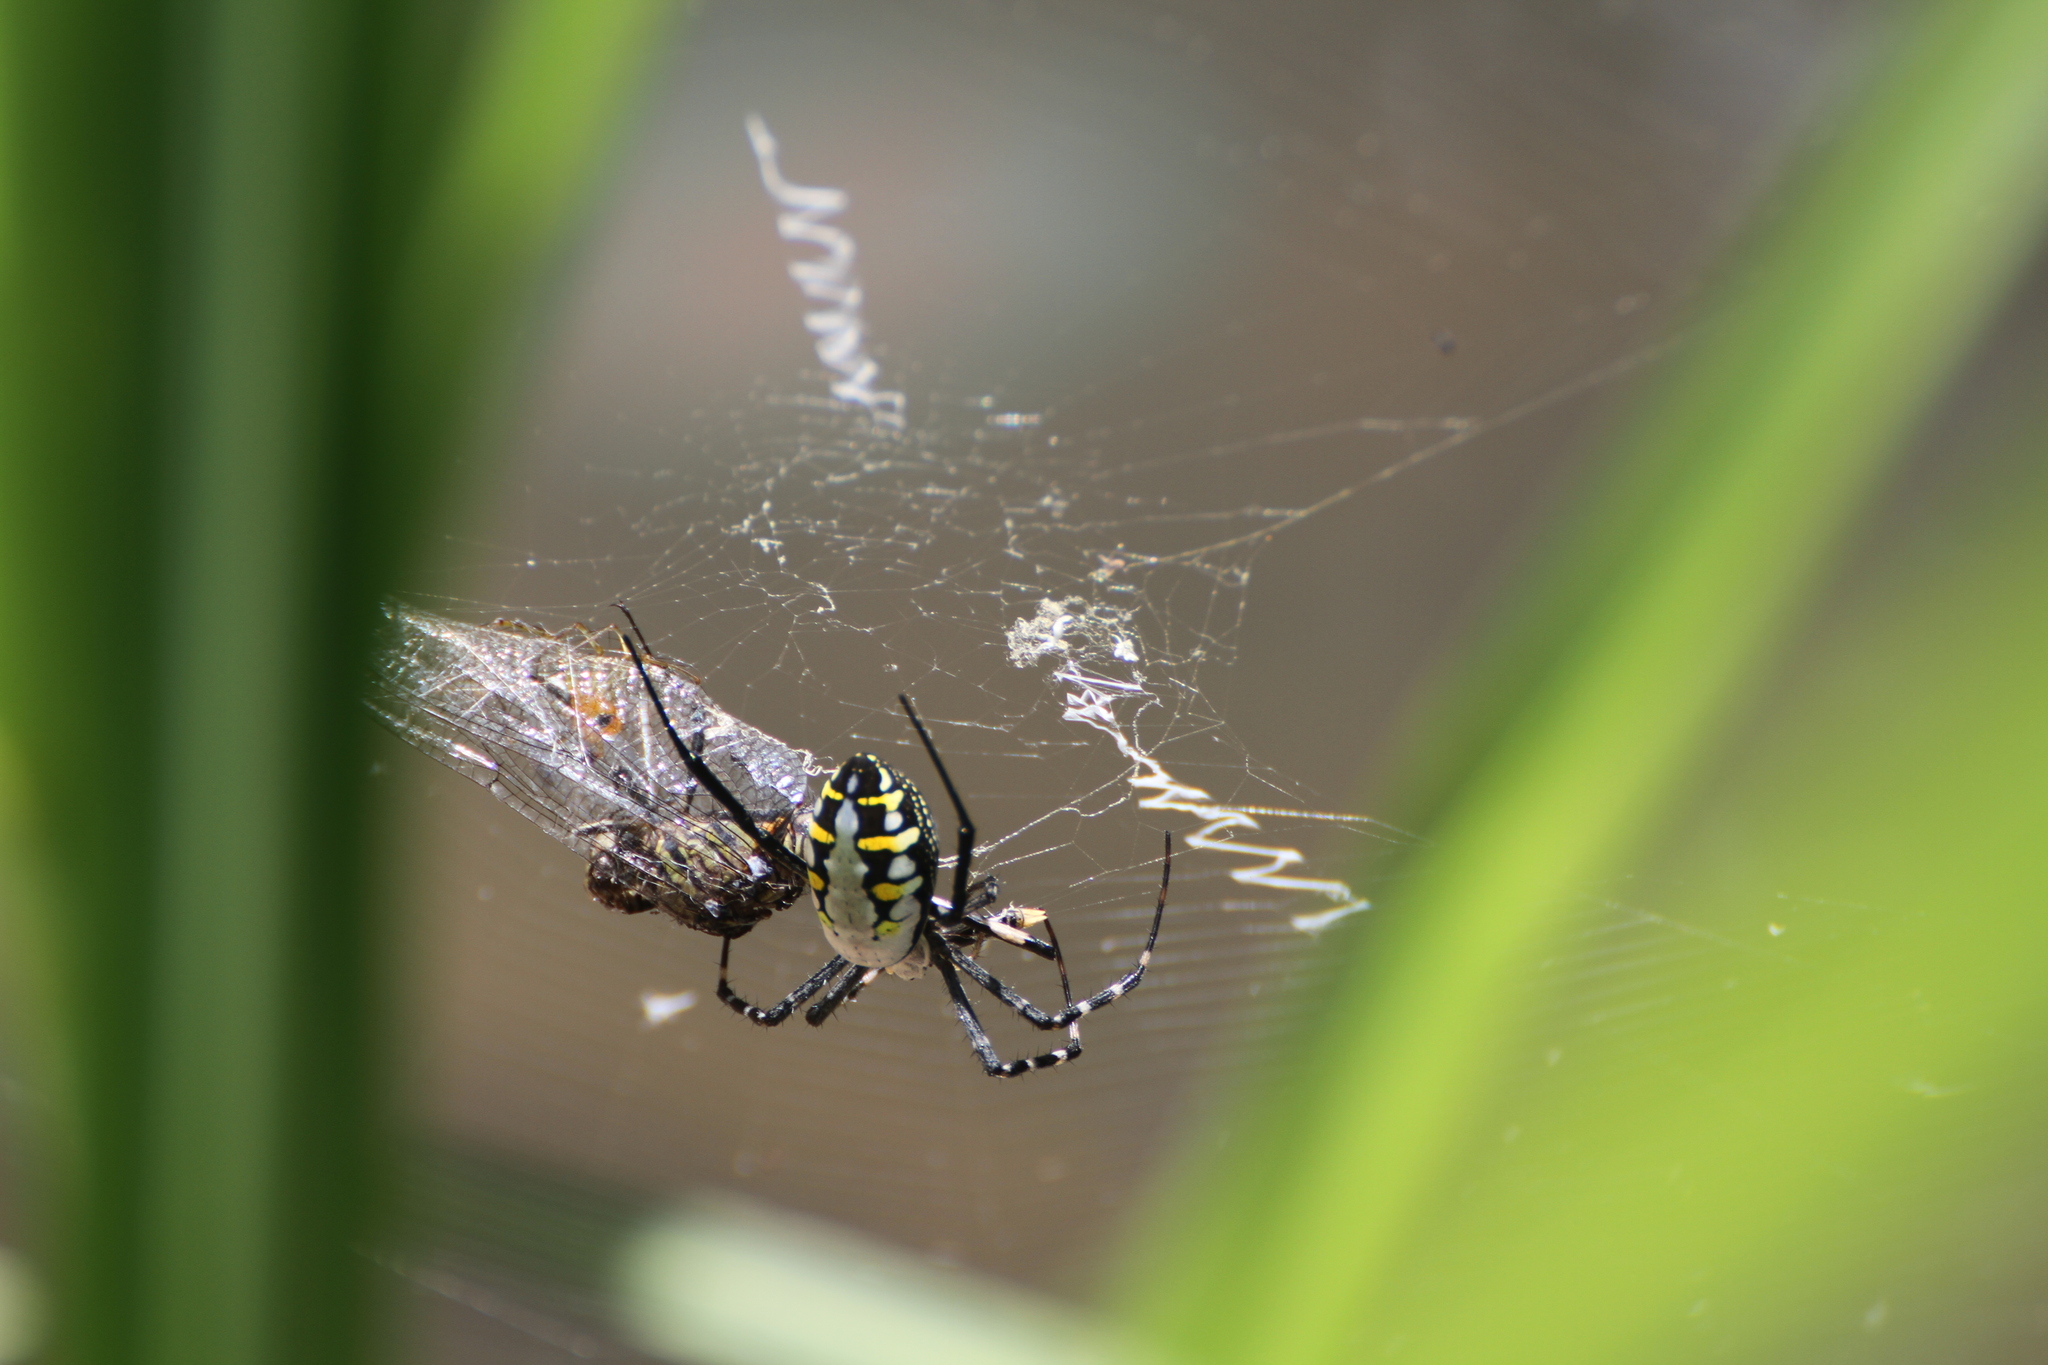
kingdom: Animalia
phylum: Arthropoda
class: Arachnida
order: Araneae
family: Araneidae
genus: Argiope
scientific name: Argiope catenulata
